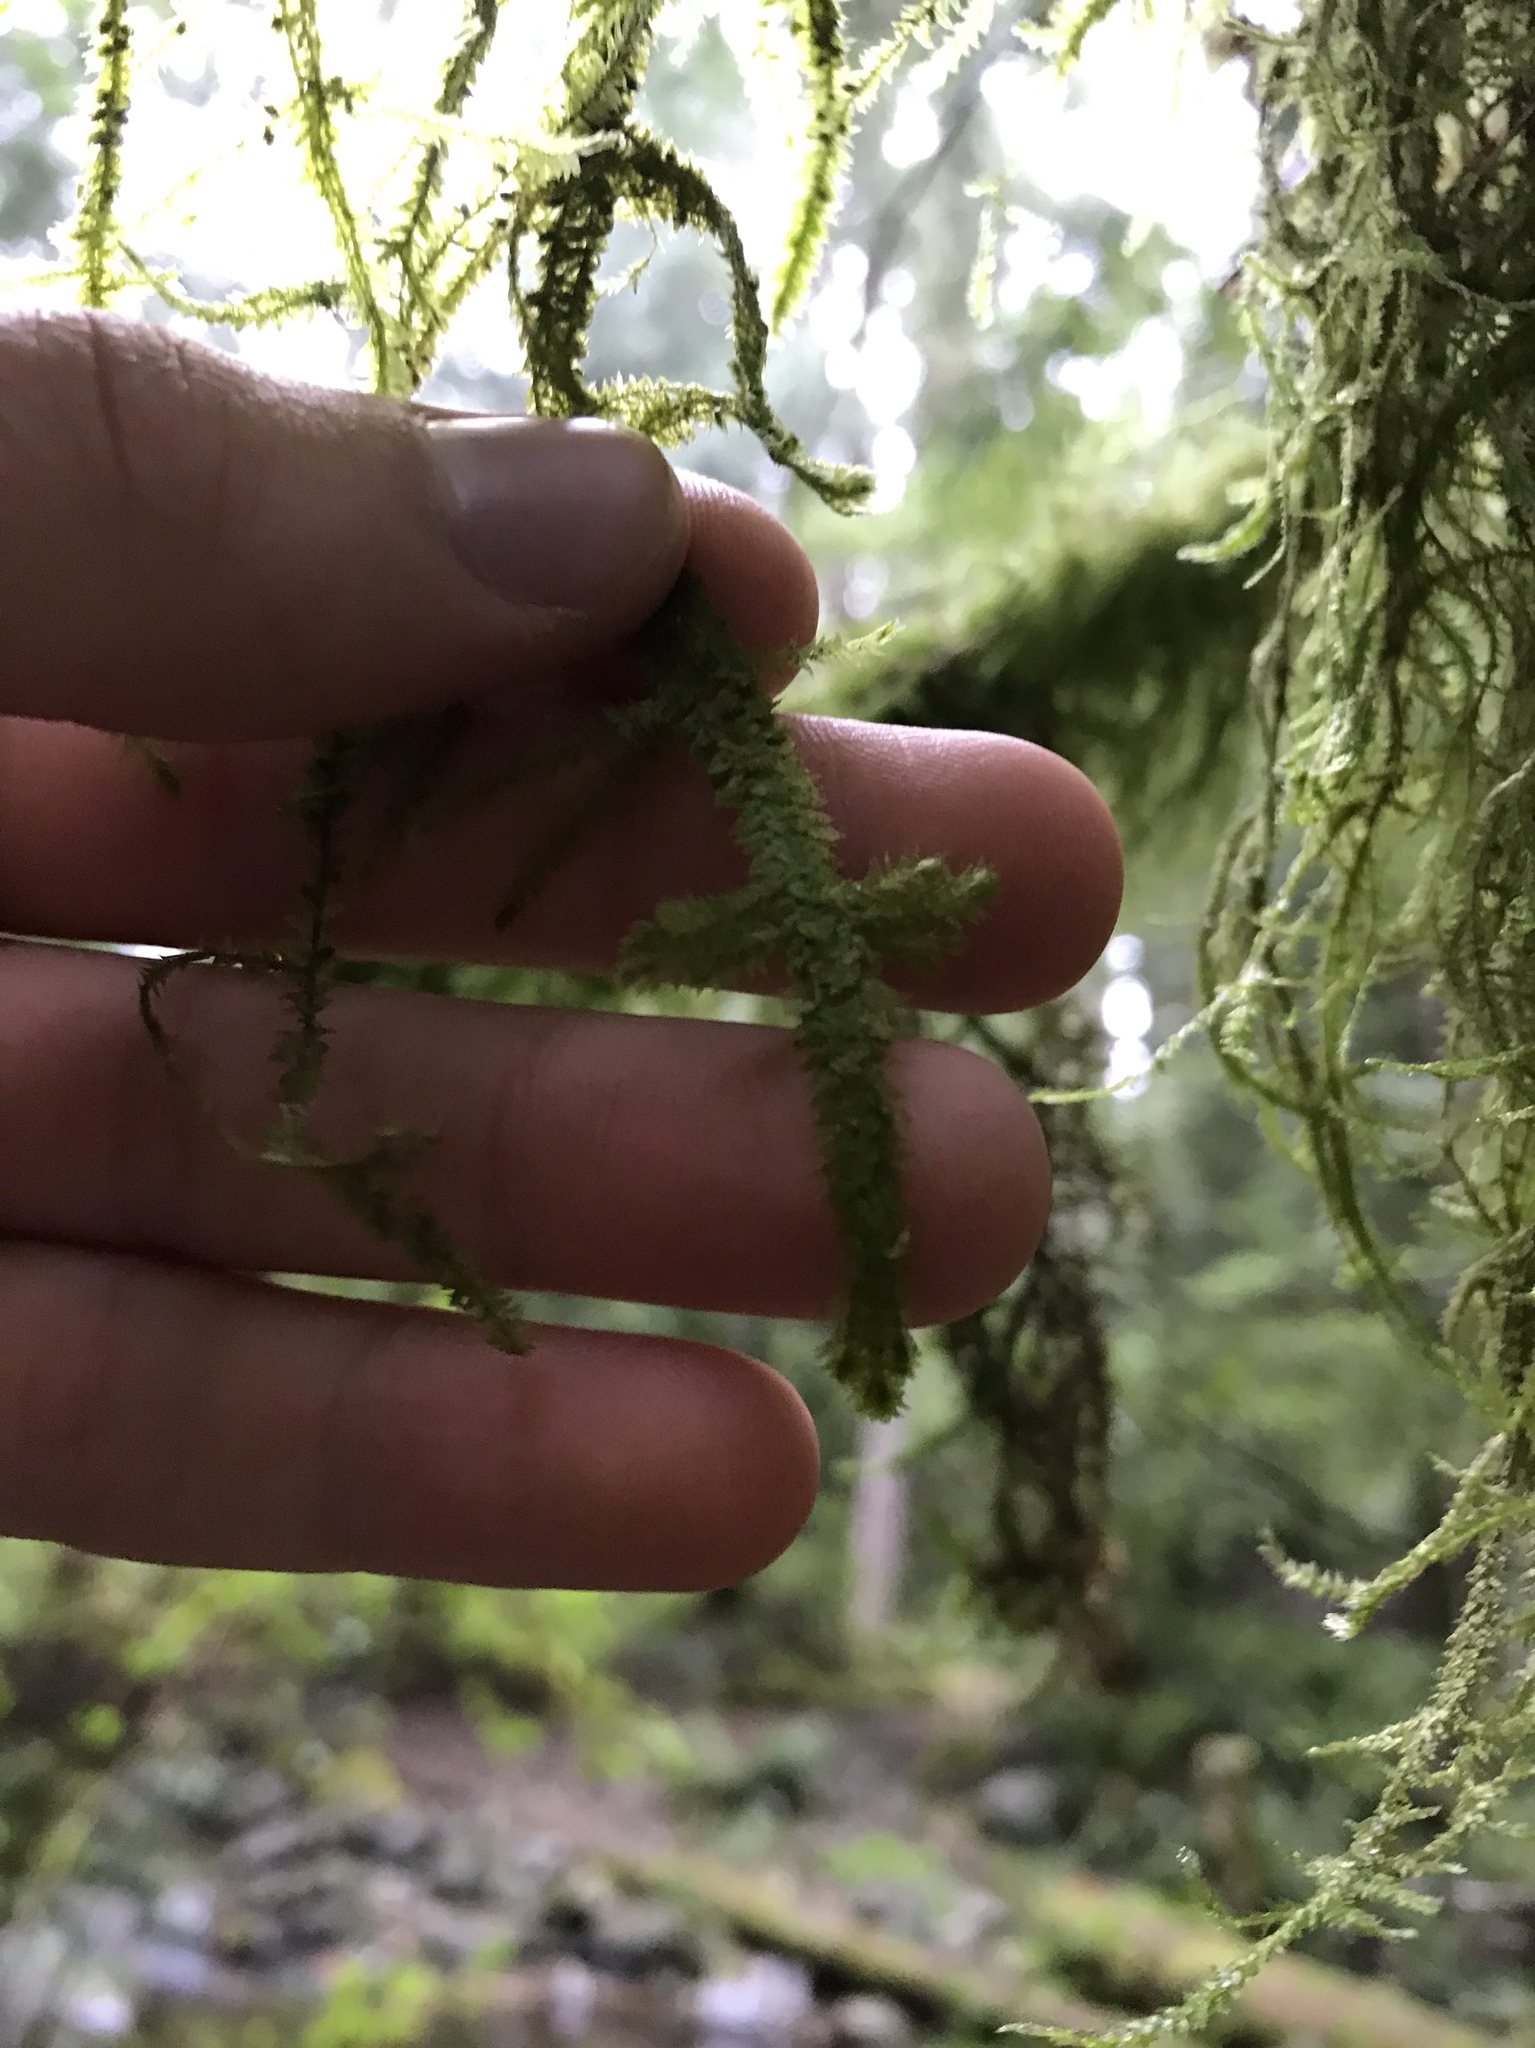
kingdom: Plantae
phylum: Bryophyta
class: Bryopsida
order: Hypnales
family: Lembophyllaceae
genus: Pseudisothecium
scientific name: Pseudisothecium stoloniferum
